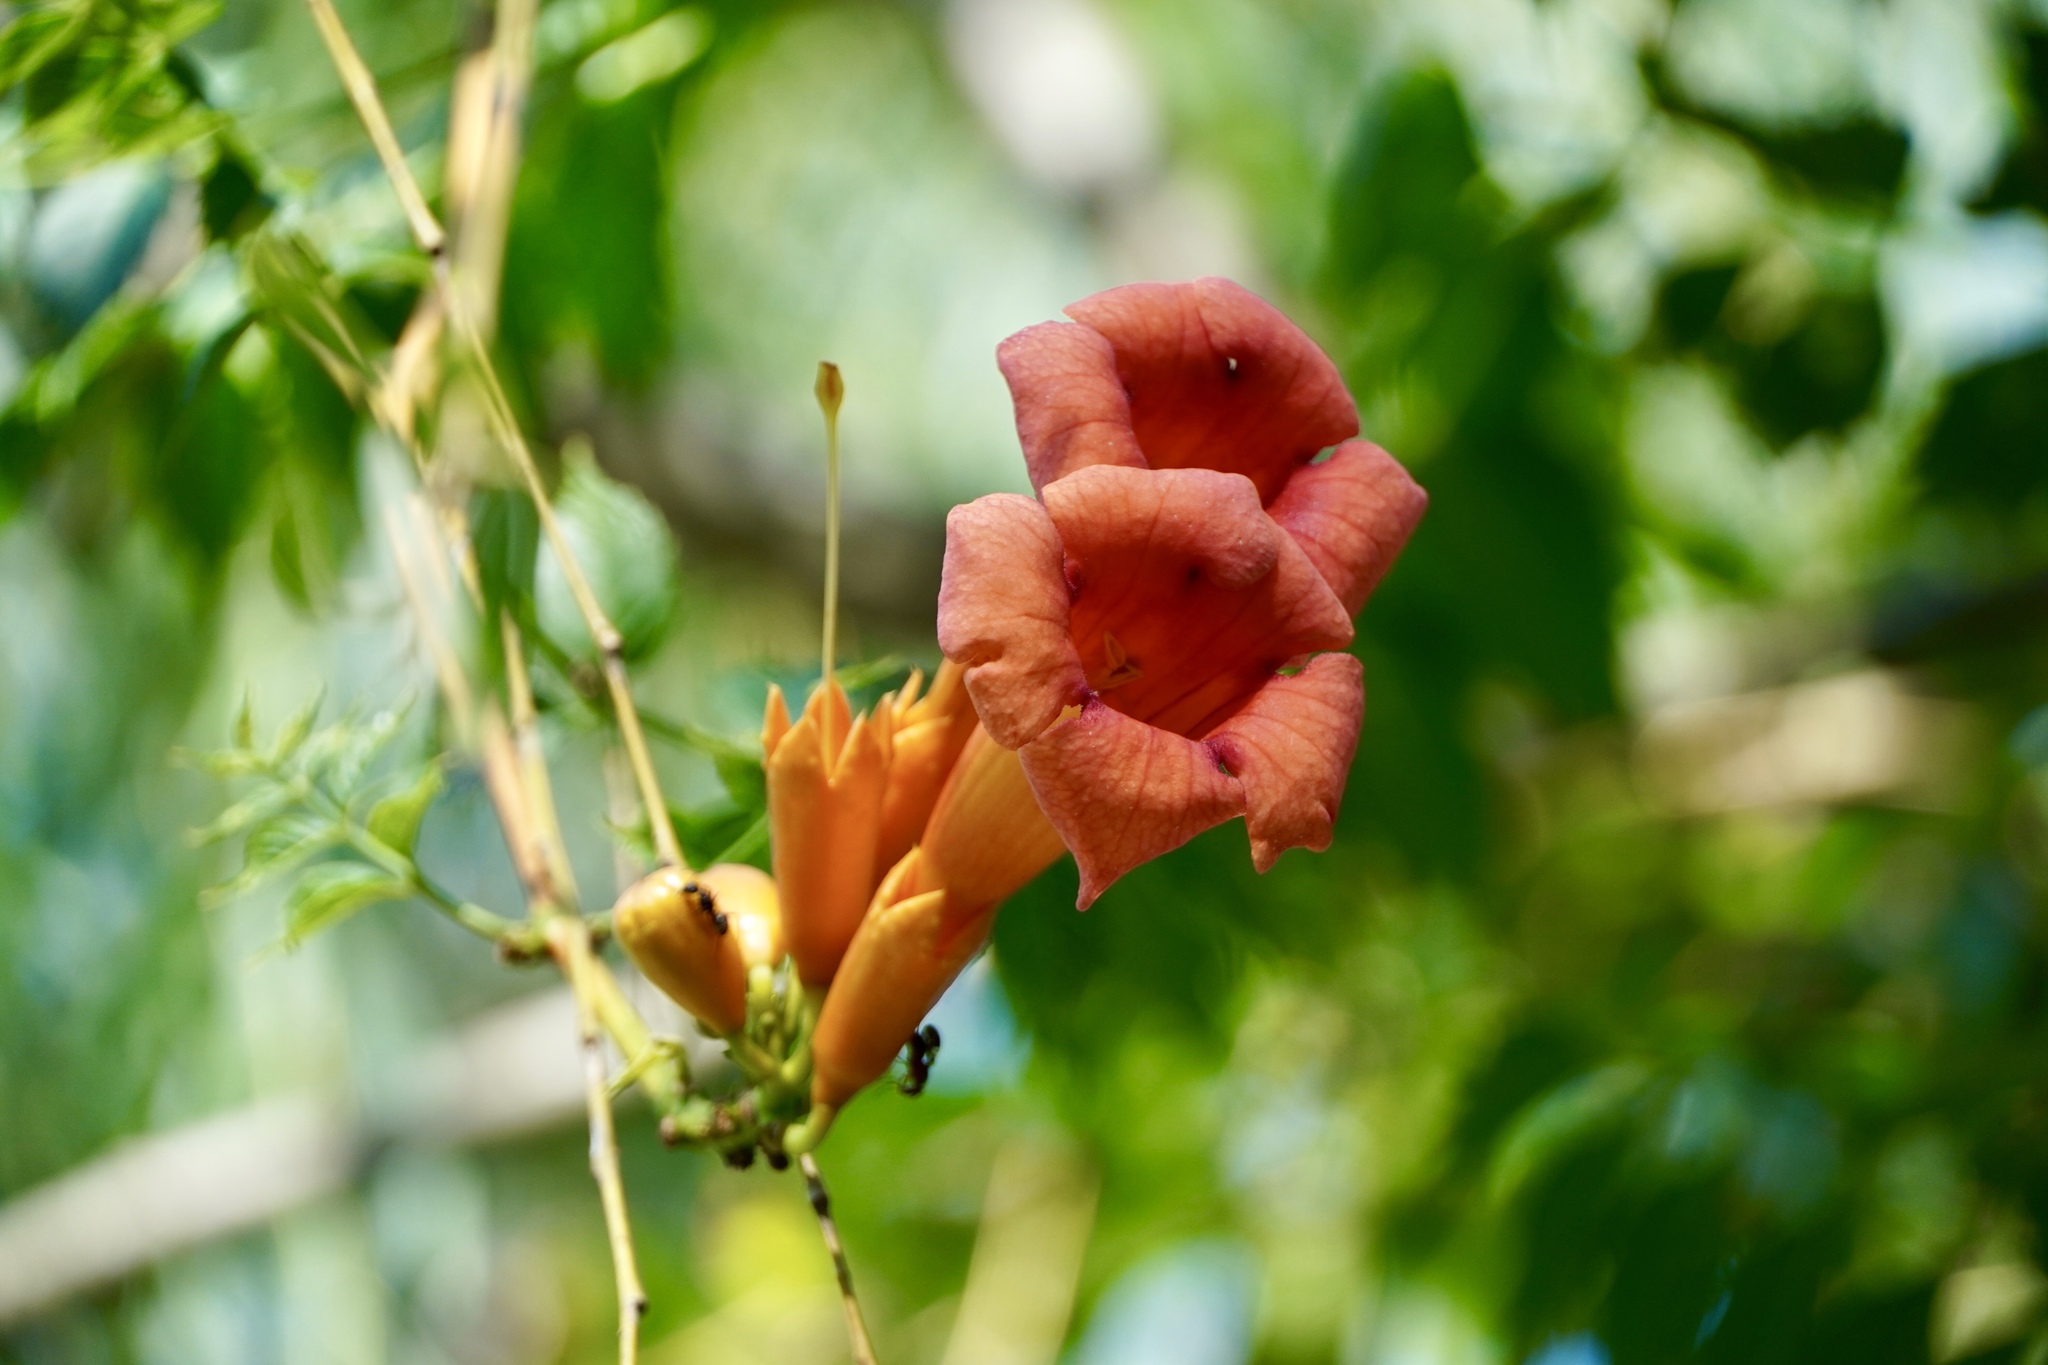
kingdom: Plantae
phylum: Tracheophyta
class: Magnoliopsida
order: Lamiales
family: Bignoniaceae
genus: Campsis
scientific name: Campsis radicans
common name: Trumpet-creeper
